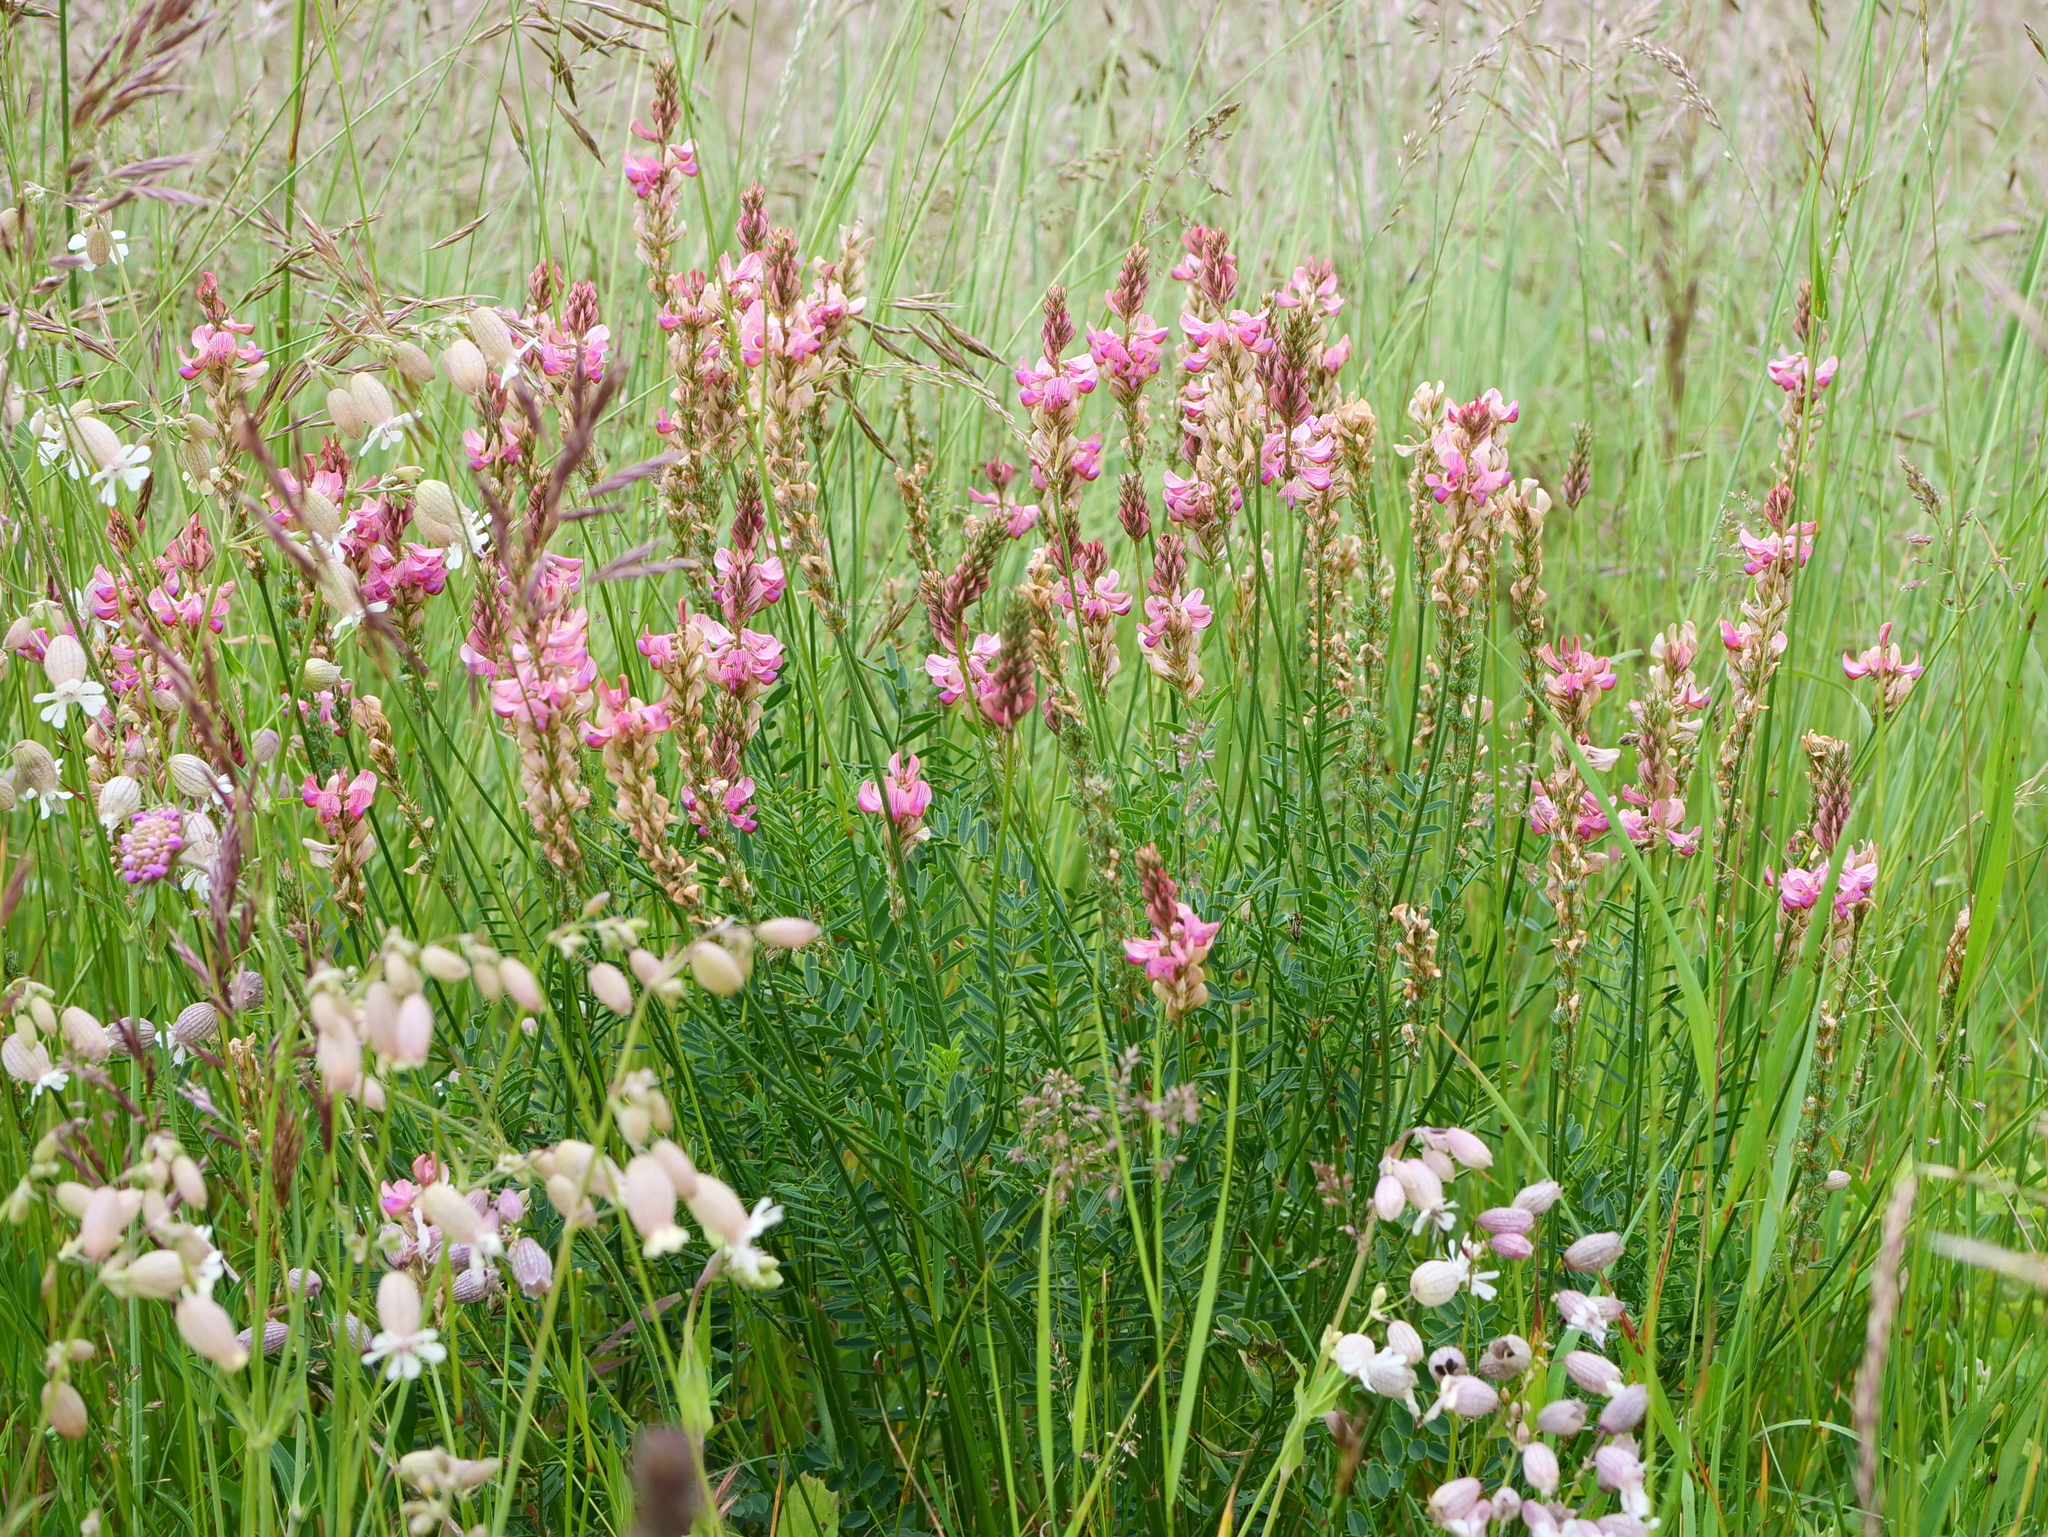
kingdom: Plantae
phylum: Tracheophyta
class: Magnoliopsida
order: Fabales
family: Fabaceae
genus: Onobrychis
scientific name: Onobrychis viciifolia
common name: Sainfoin
